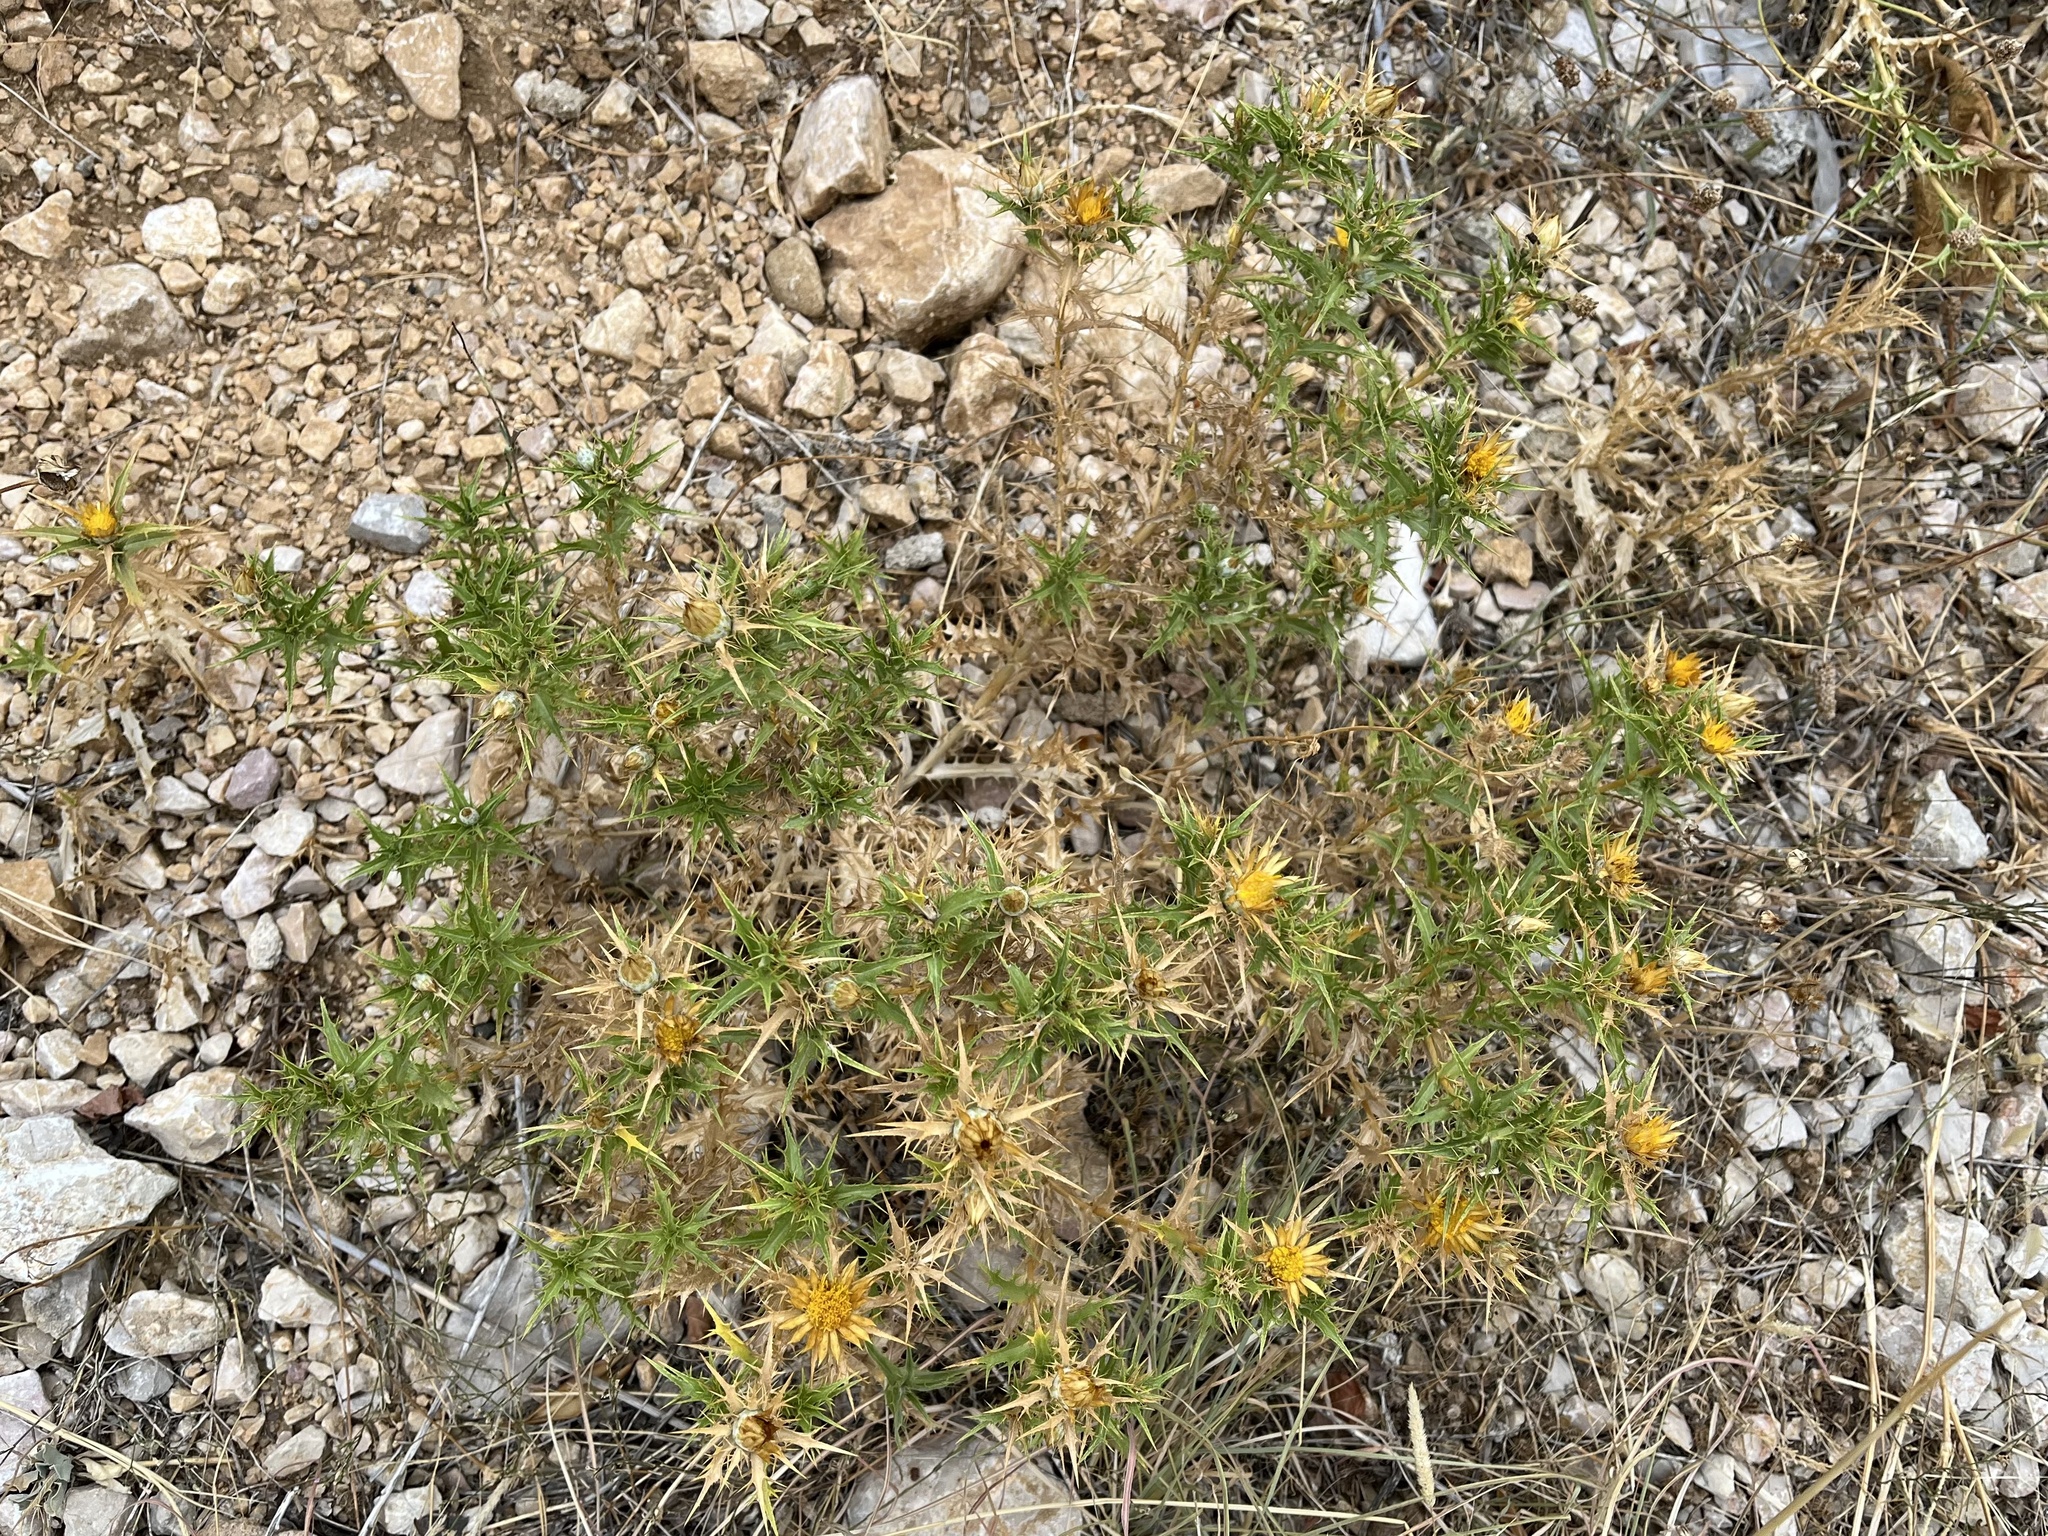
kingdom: Plantae
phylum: Tracheophyta
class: Magnoliopsida
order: Asterales
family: Asteraceae
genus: Carlina
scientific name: Carlina corymbosa
